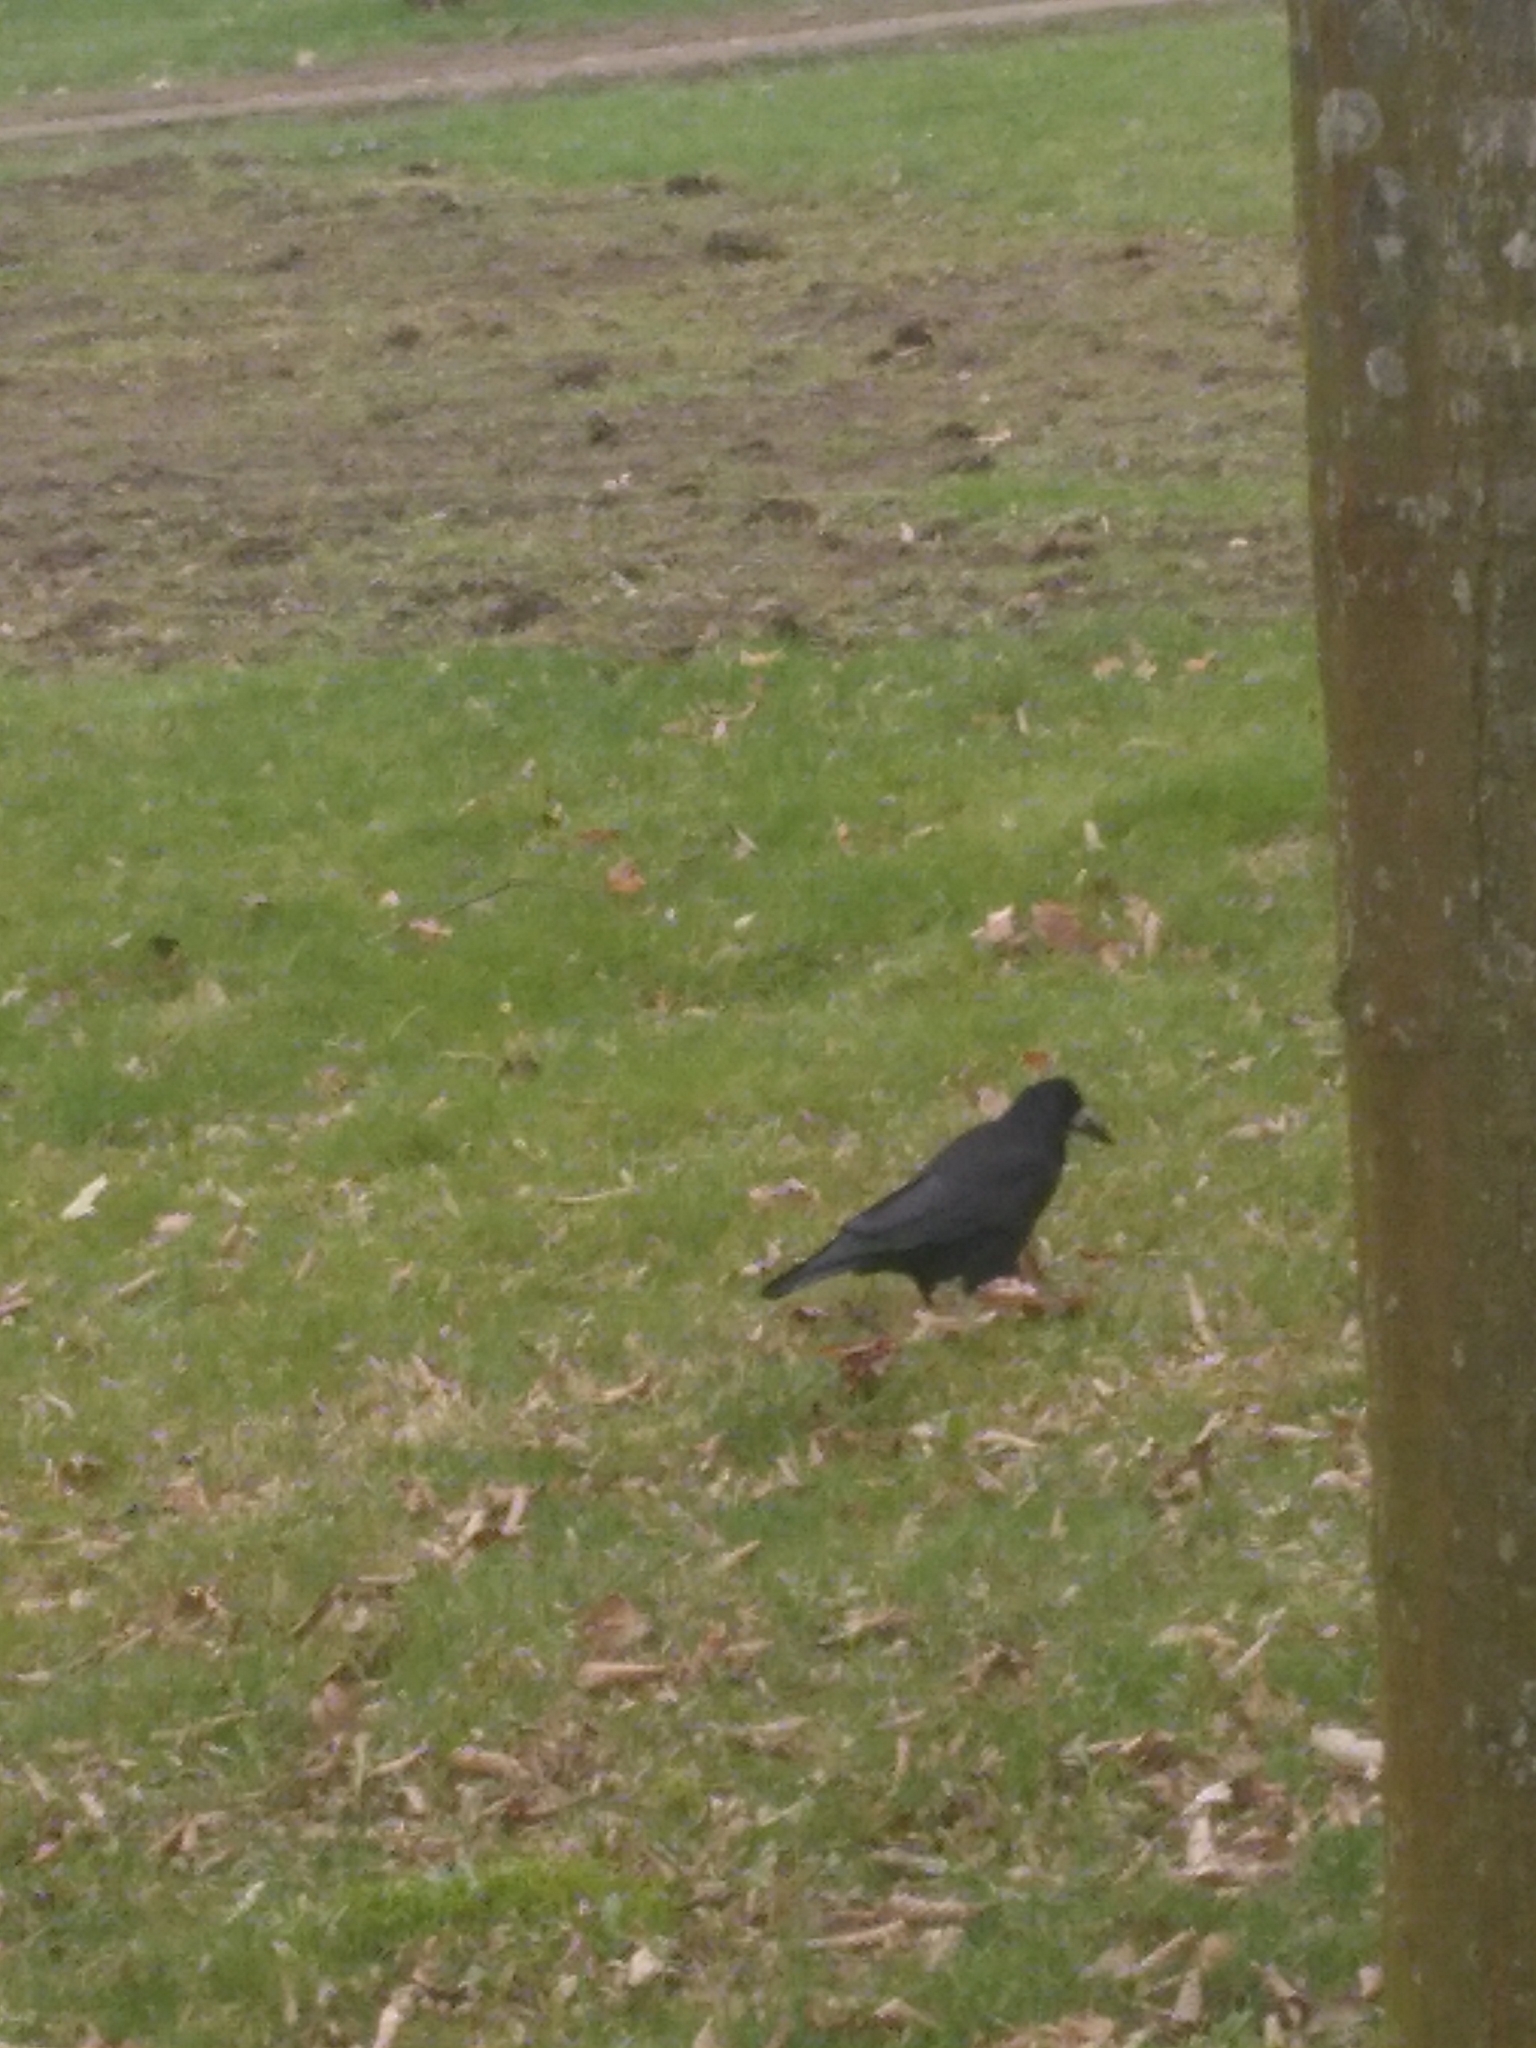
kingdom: Animalia
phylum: Chordata
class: Aves
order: Passeriformes
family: Corvidae
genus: Corvus
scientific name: Corvus frugilegus
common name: Rook
